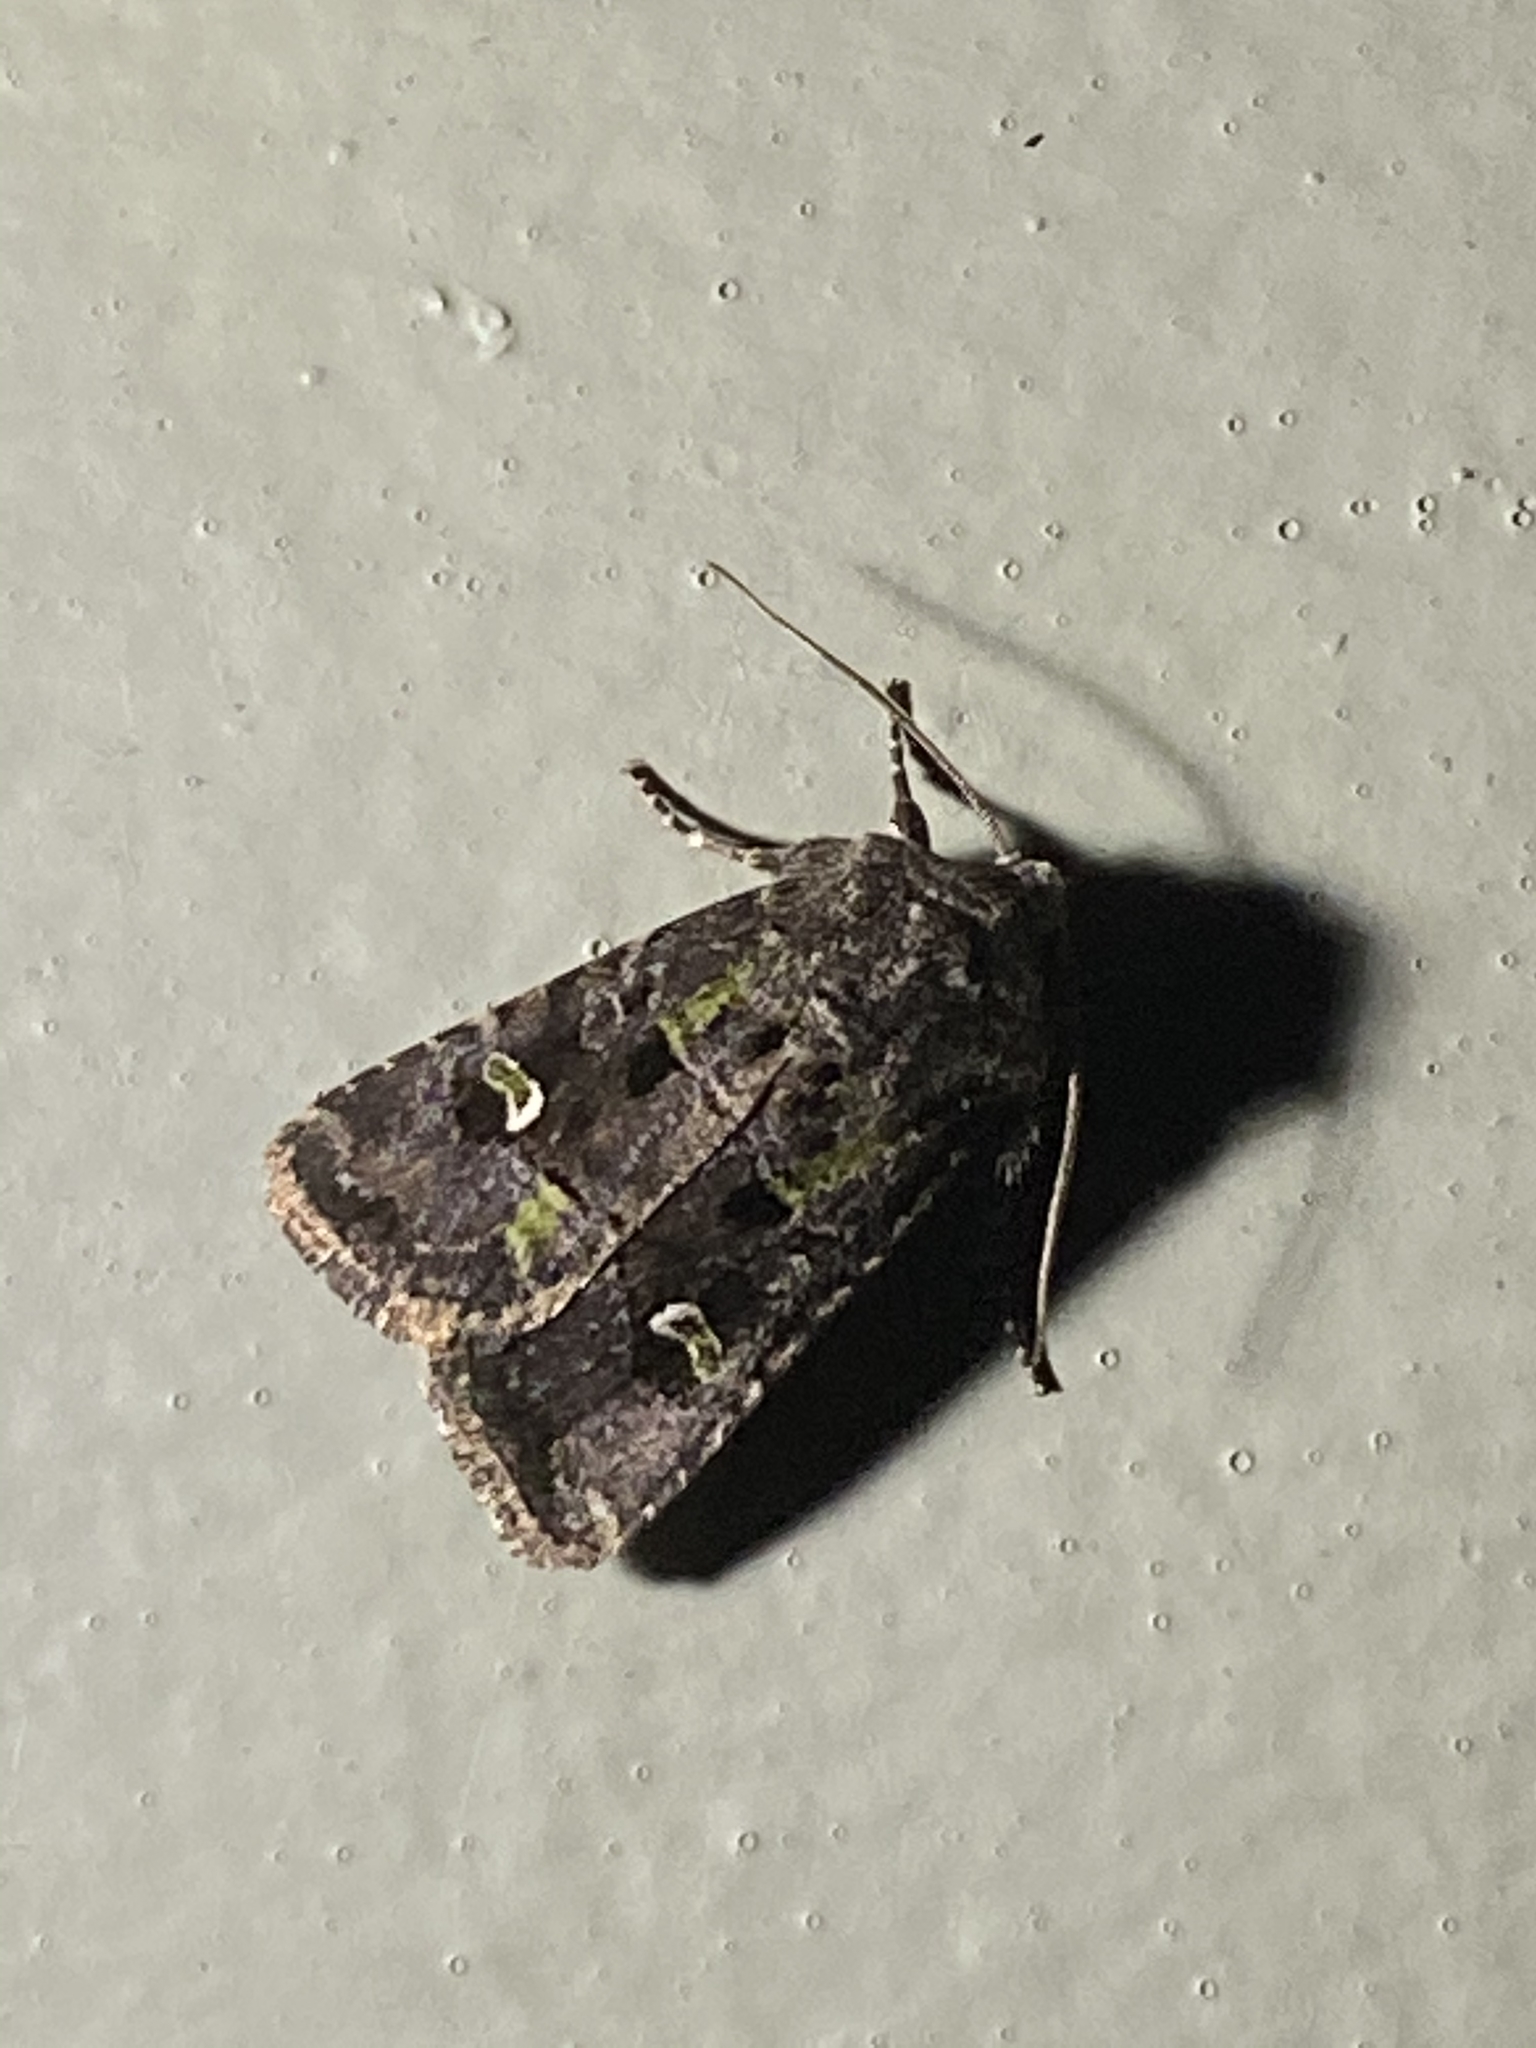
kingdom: Animalia
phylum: Arthropoda
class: Insecta
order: Lepidoptera
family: Noctuidae
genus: Lacinipolia
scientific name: Lacinipolia renigera
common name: Kidney-spotted minor
